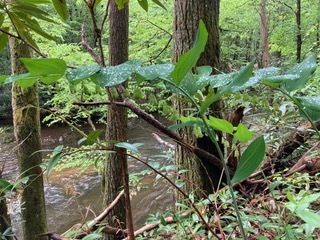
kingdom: Plantae
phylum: Tracheophyta
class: Liliopsida
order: Asparagales
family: Asparagaceae
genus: Polygonatum
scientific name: Polygonatum biflorum
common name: American solomon's-seal
